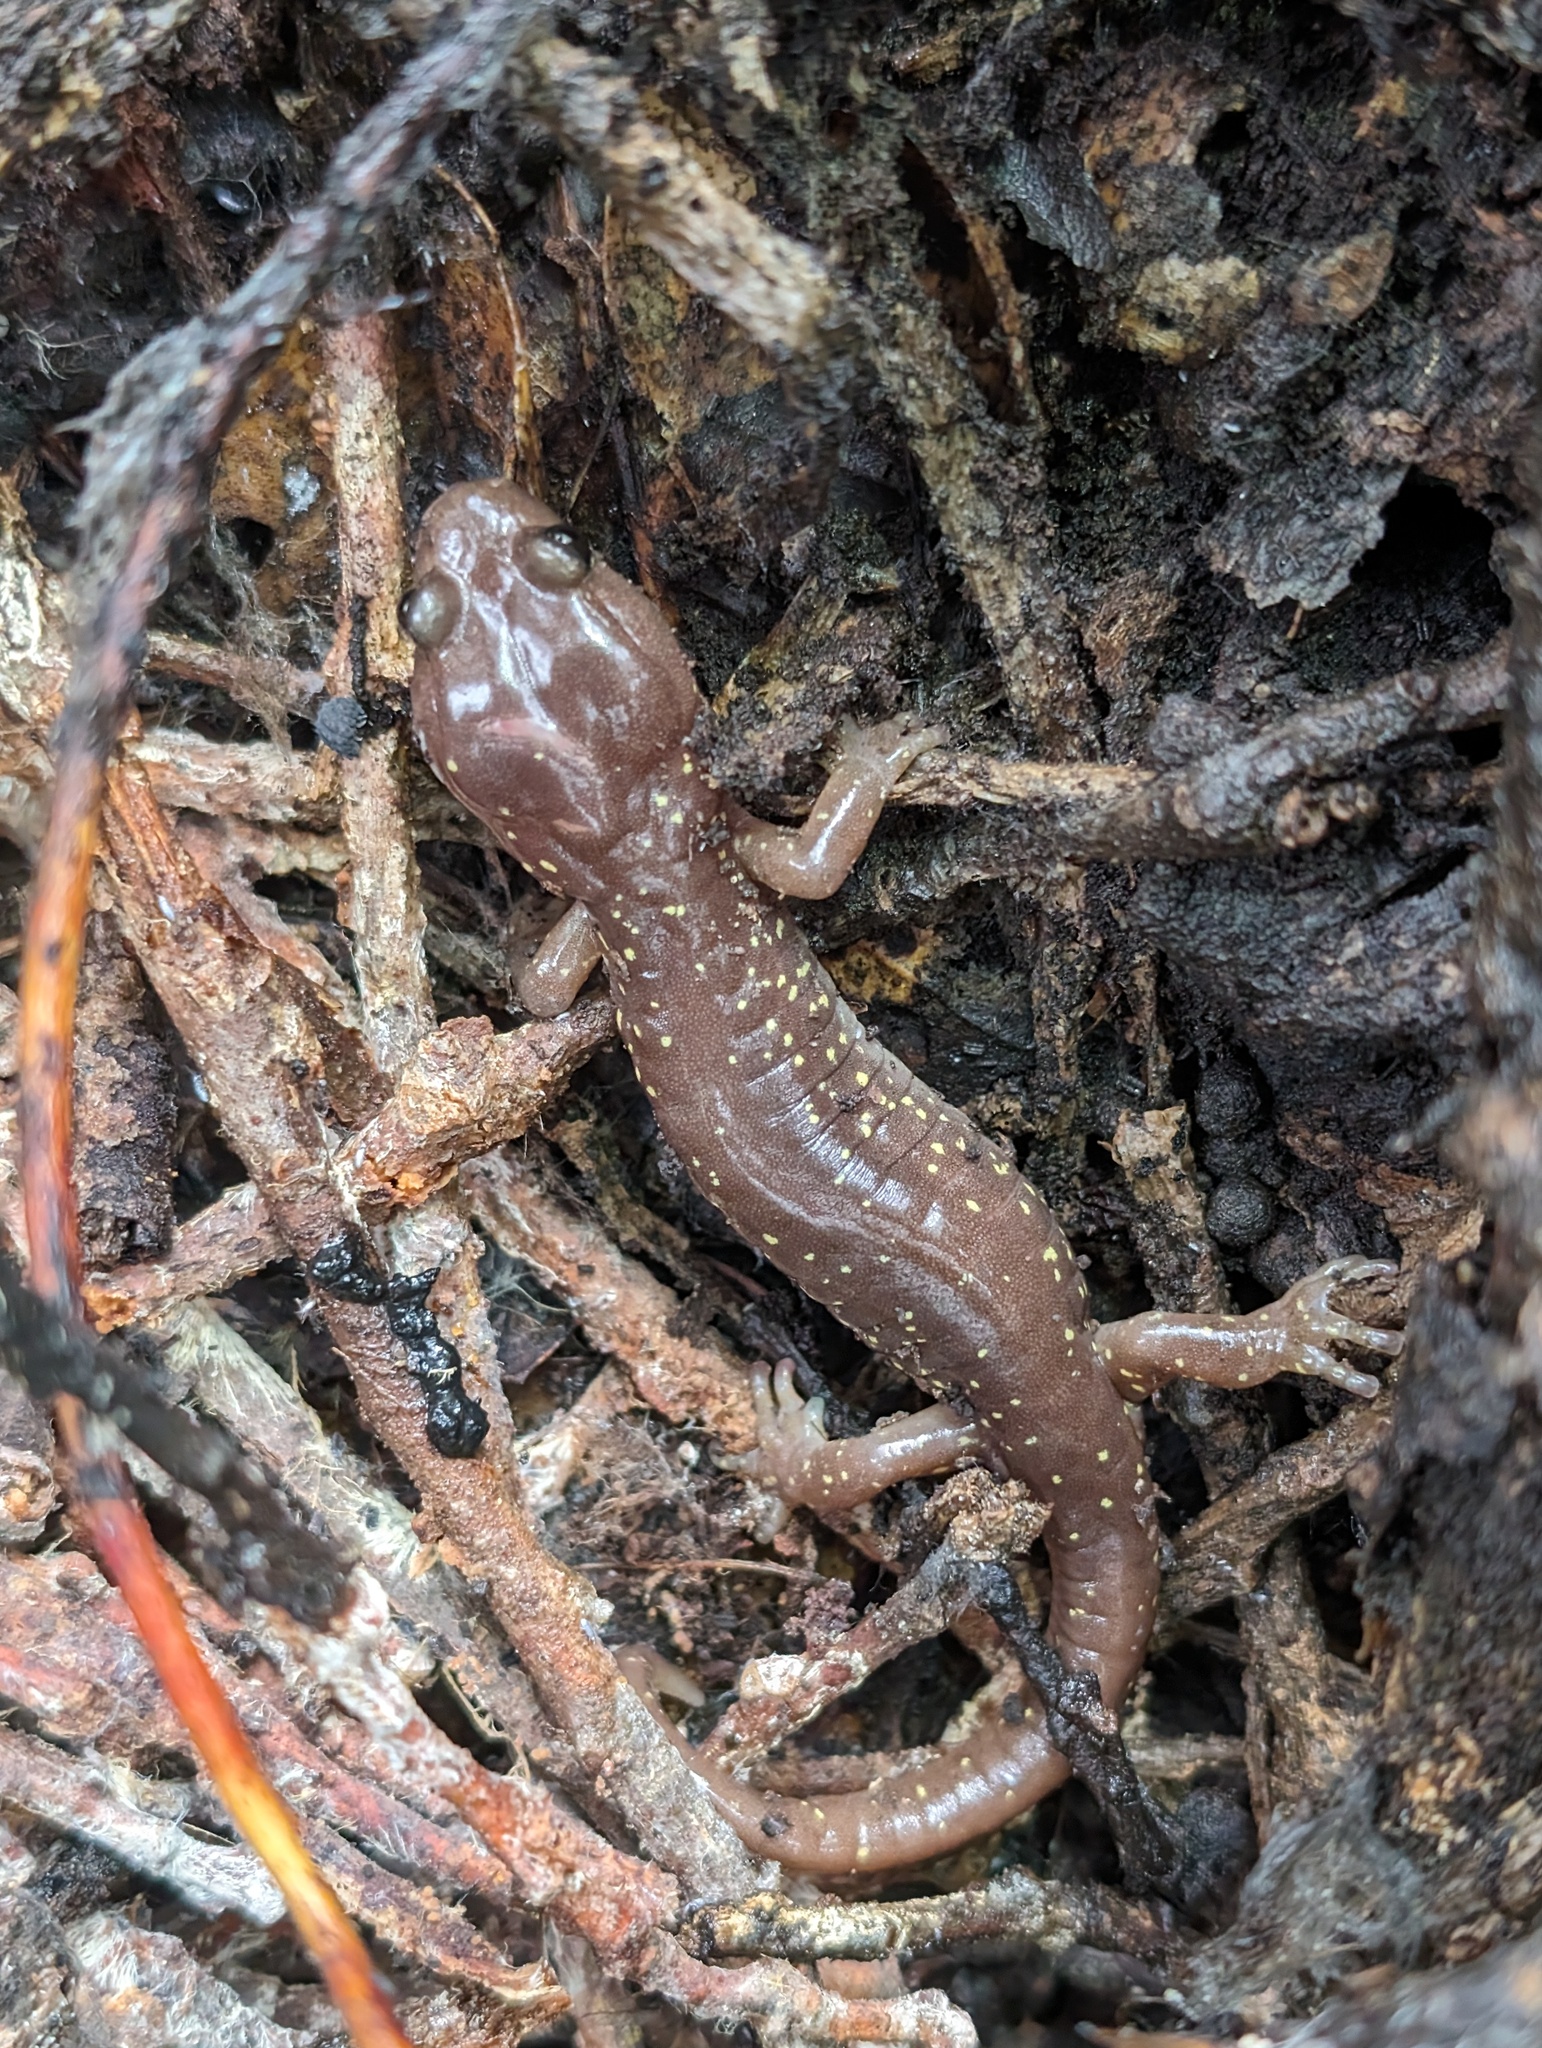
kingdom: Animalia
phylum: Chordata
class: Amphibia
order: Caudata
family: Plethodontidae
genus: Aneides
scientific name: Aneides lugubris
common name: Arboreal salamander
